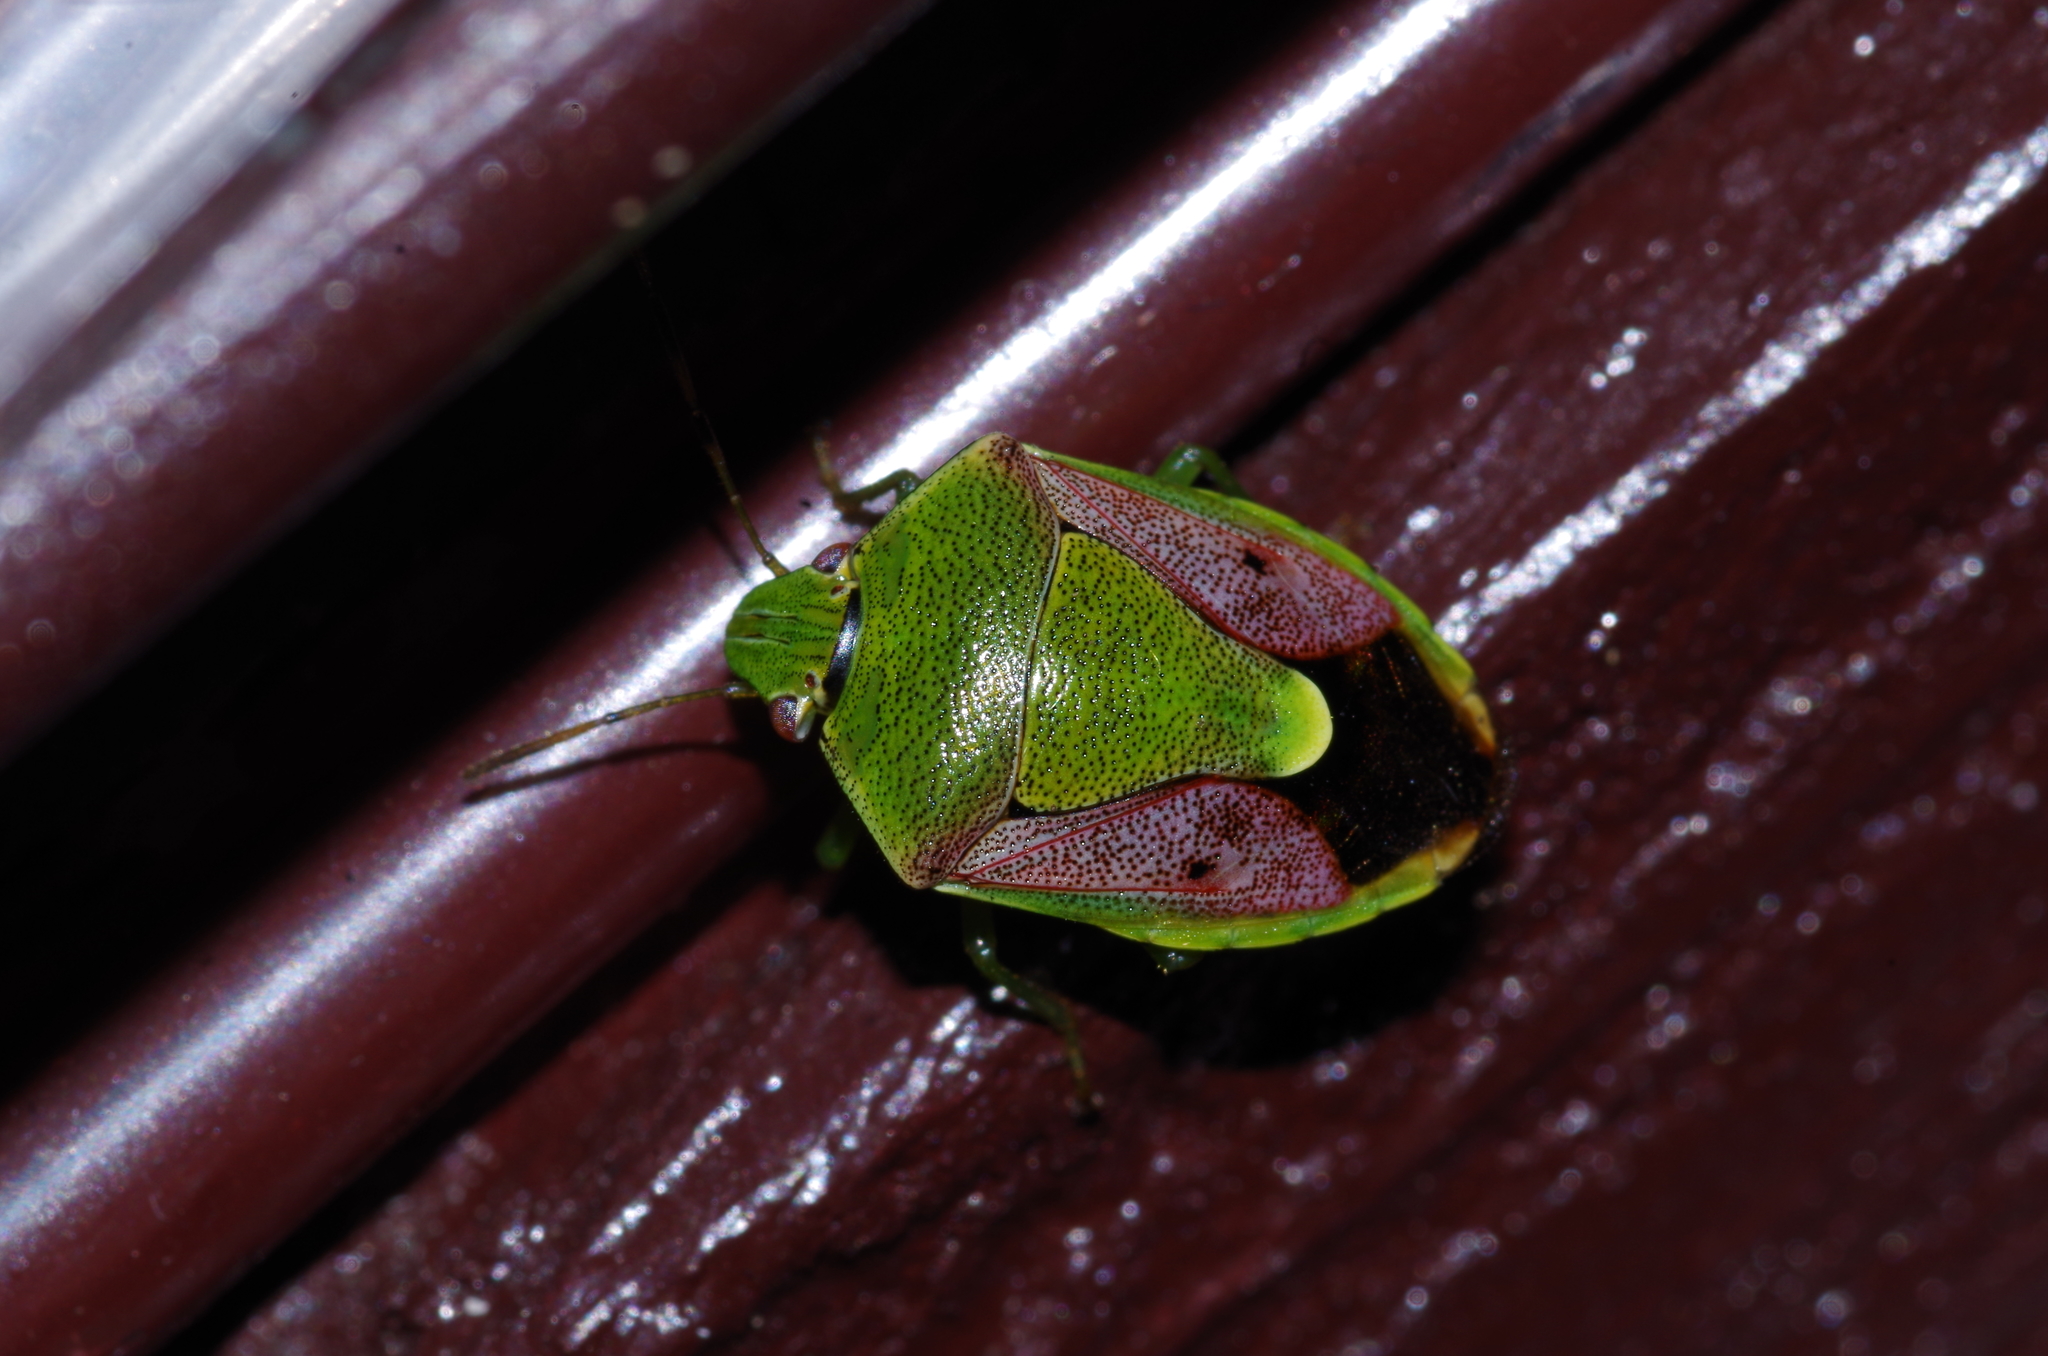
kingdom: Animalia
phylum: Arthropoda
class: Insecta
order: Hemiptera
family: Pentatomidae
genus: Plautia
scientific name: Plautia stali
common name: Stink bug
